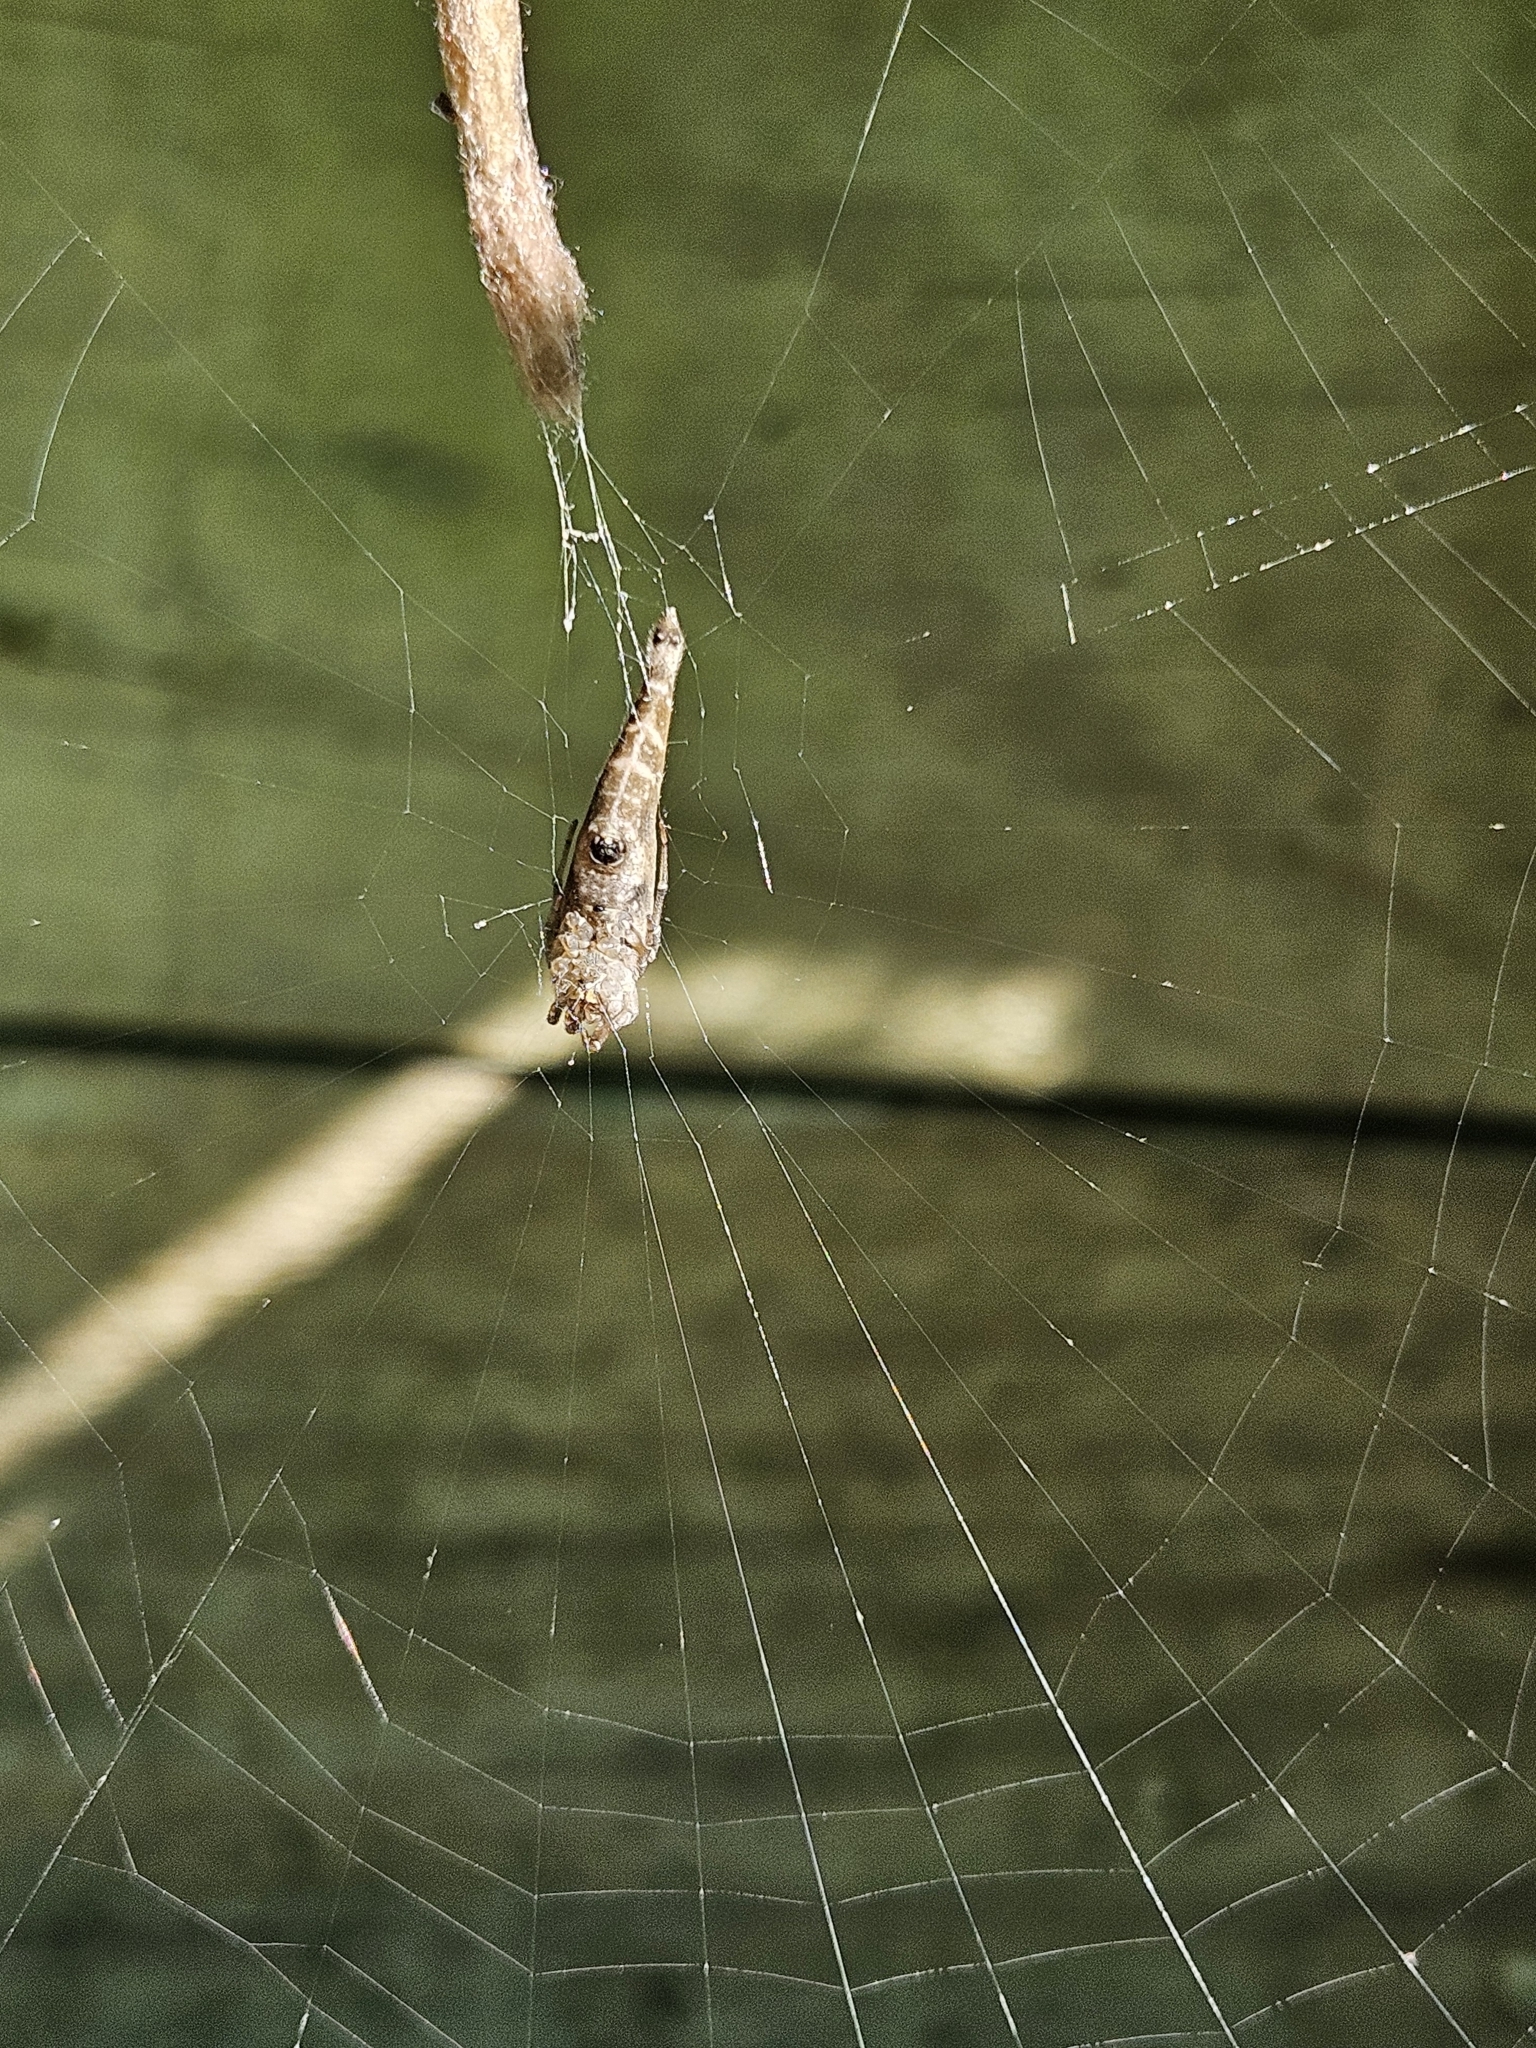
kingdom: Animalia
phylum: Arthropoda
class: Arachnida
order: Araneae
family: Araneidae
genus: Arachnura
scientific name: Arachnura feredayi
